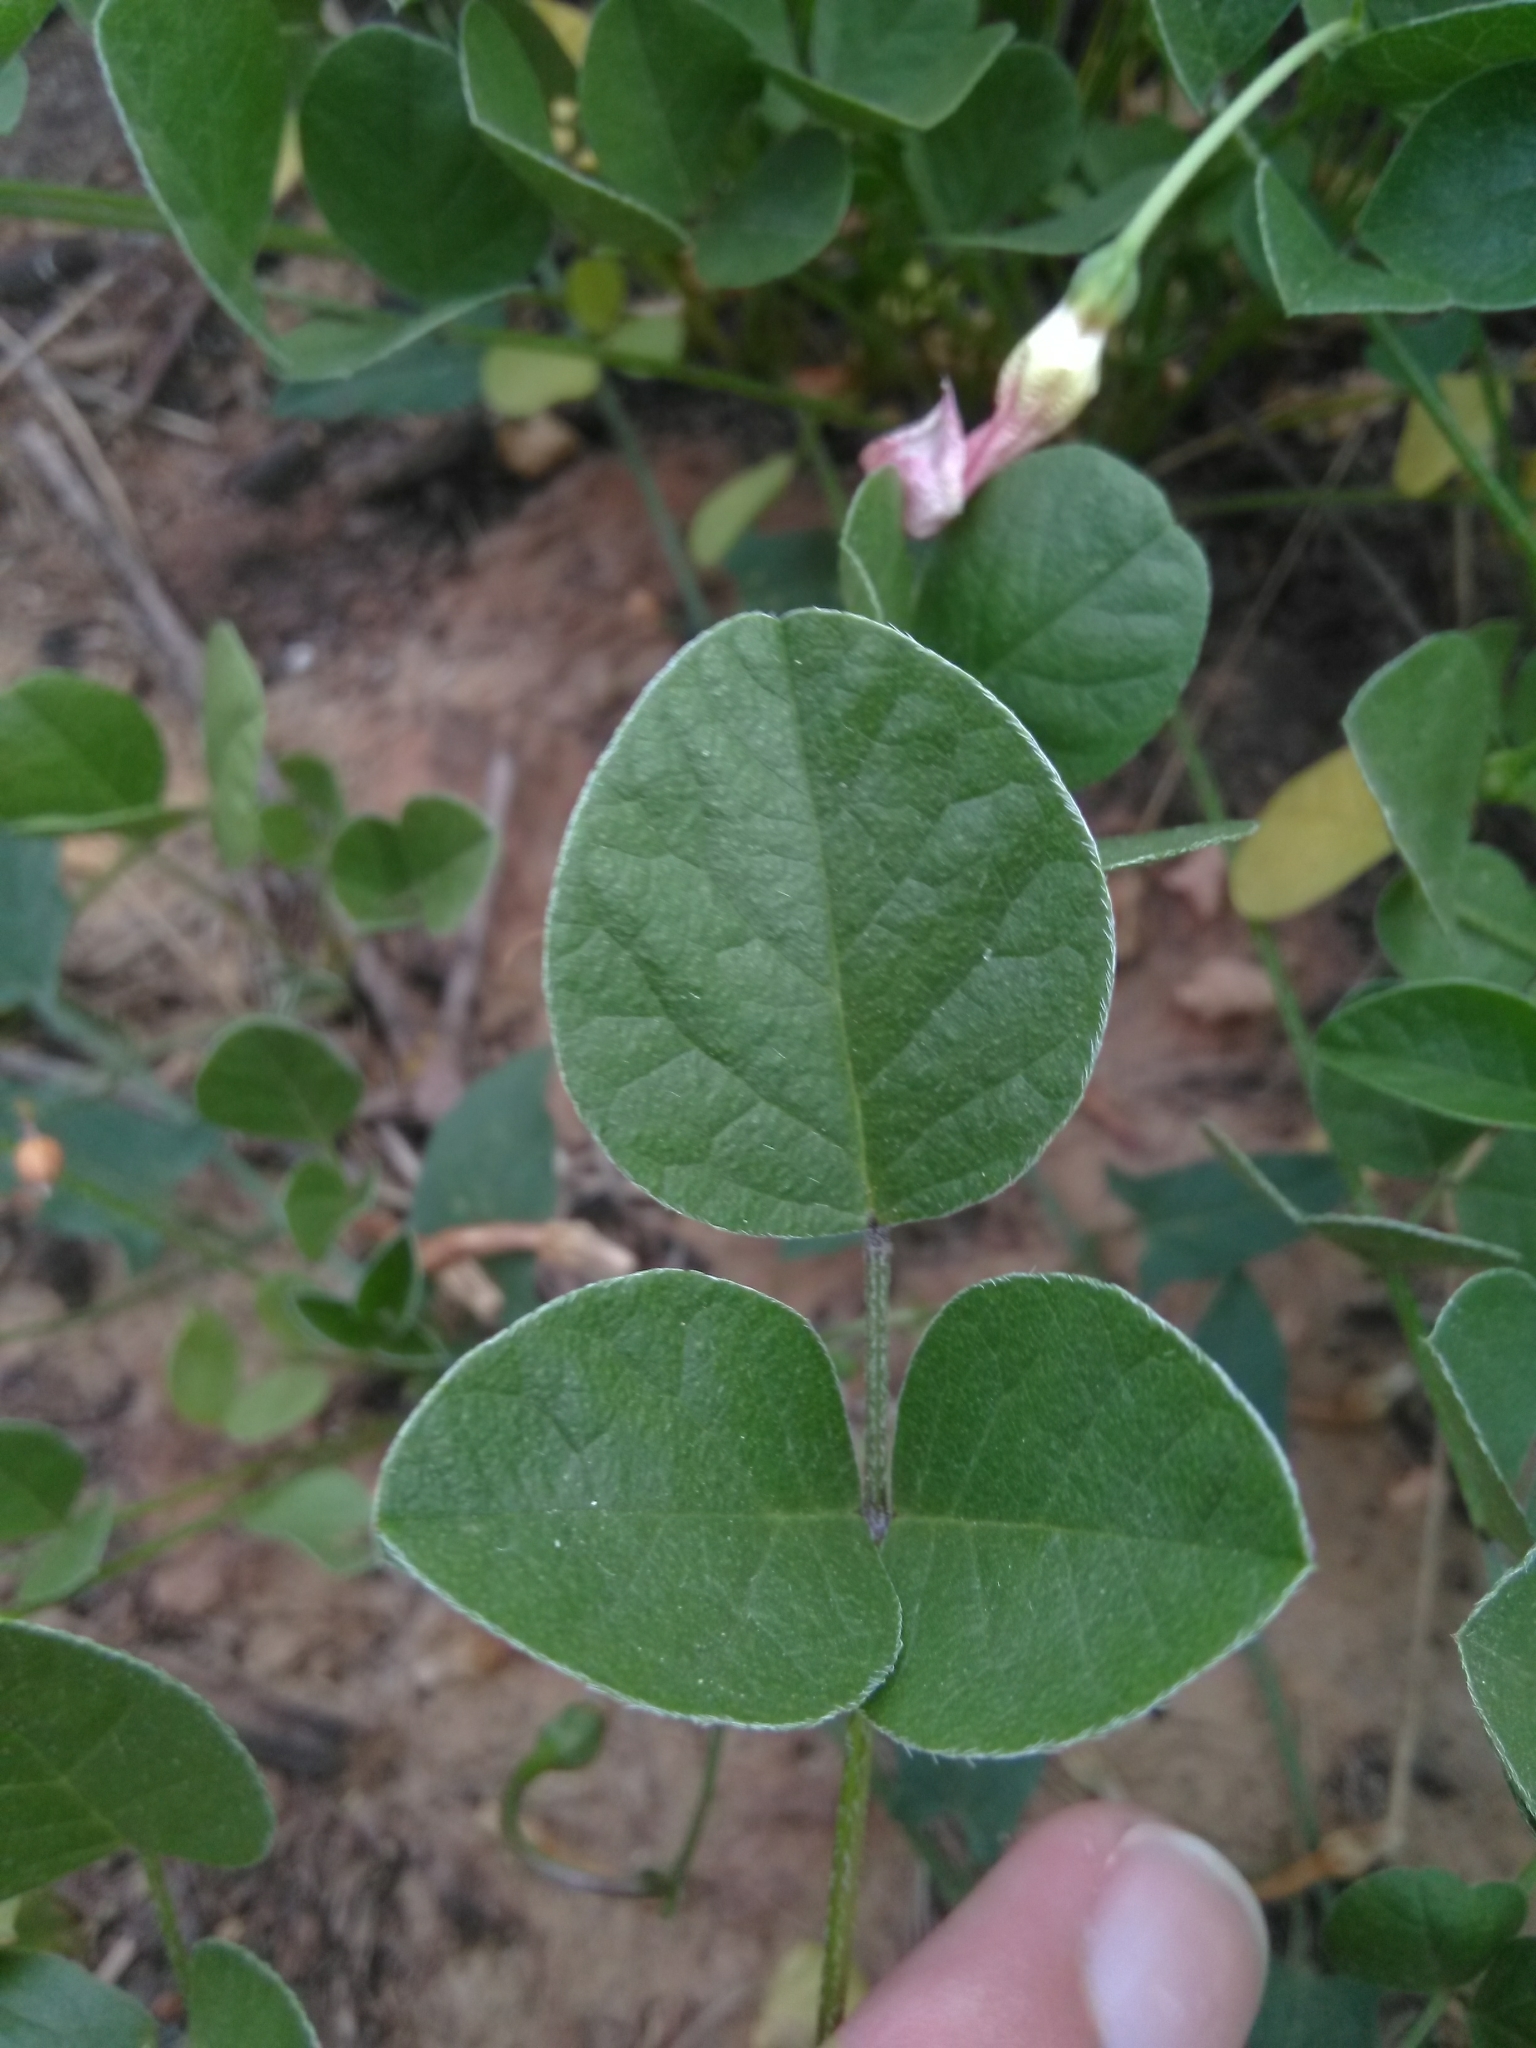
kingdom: Plantae
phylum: Tracheophyta
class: Magnoliopsida
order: Solanales
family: Convolvulaceae
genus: Convolvulus
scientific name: Convolvulus arvensis
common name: Field bindweed
